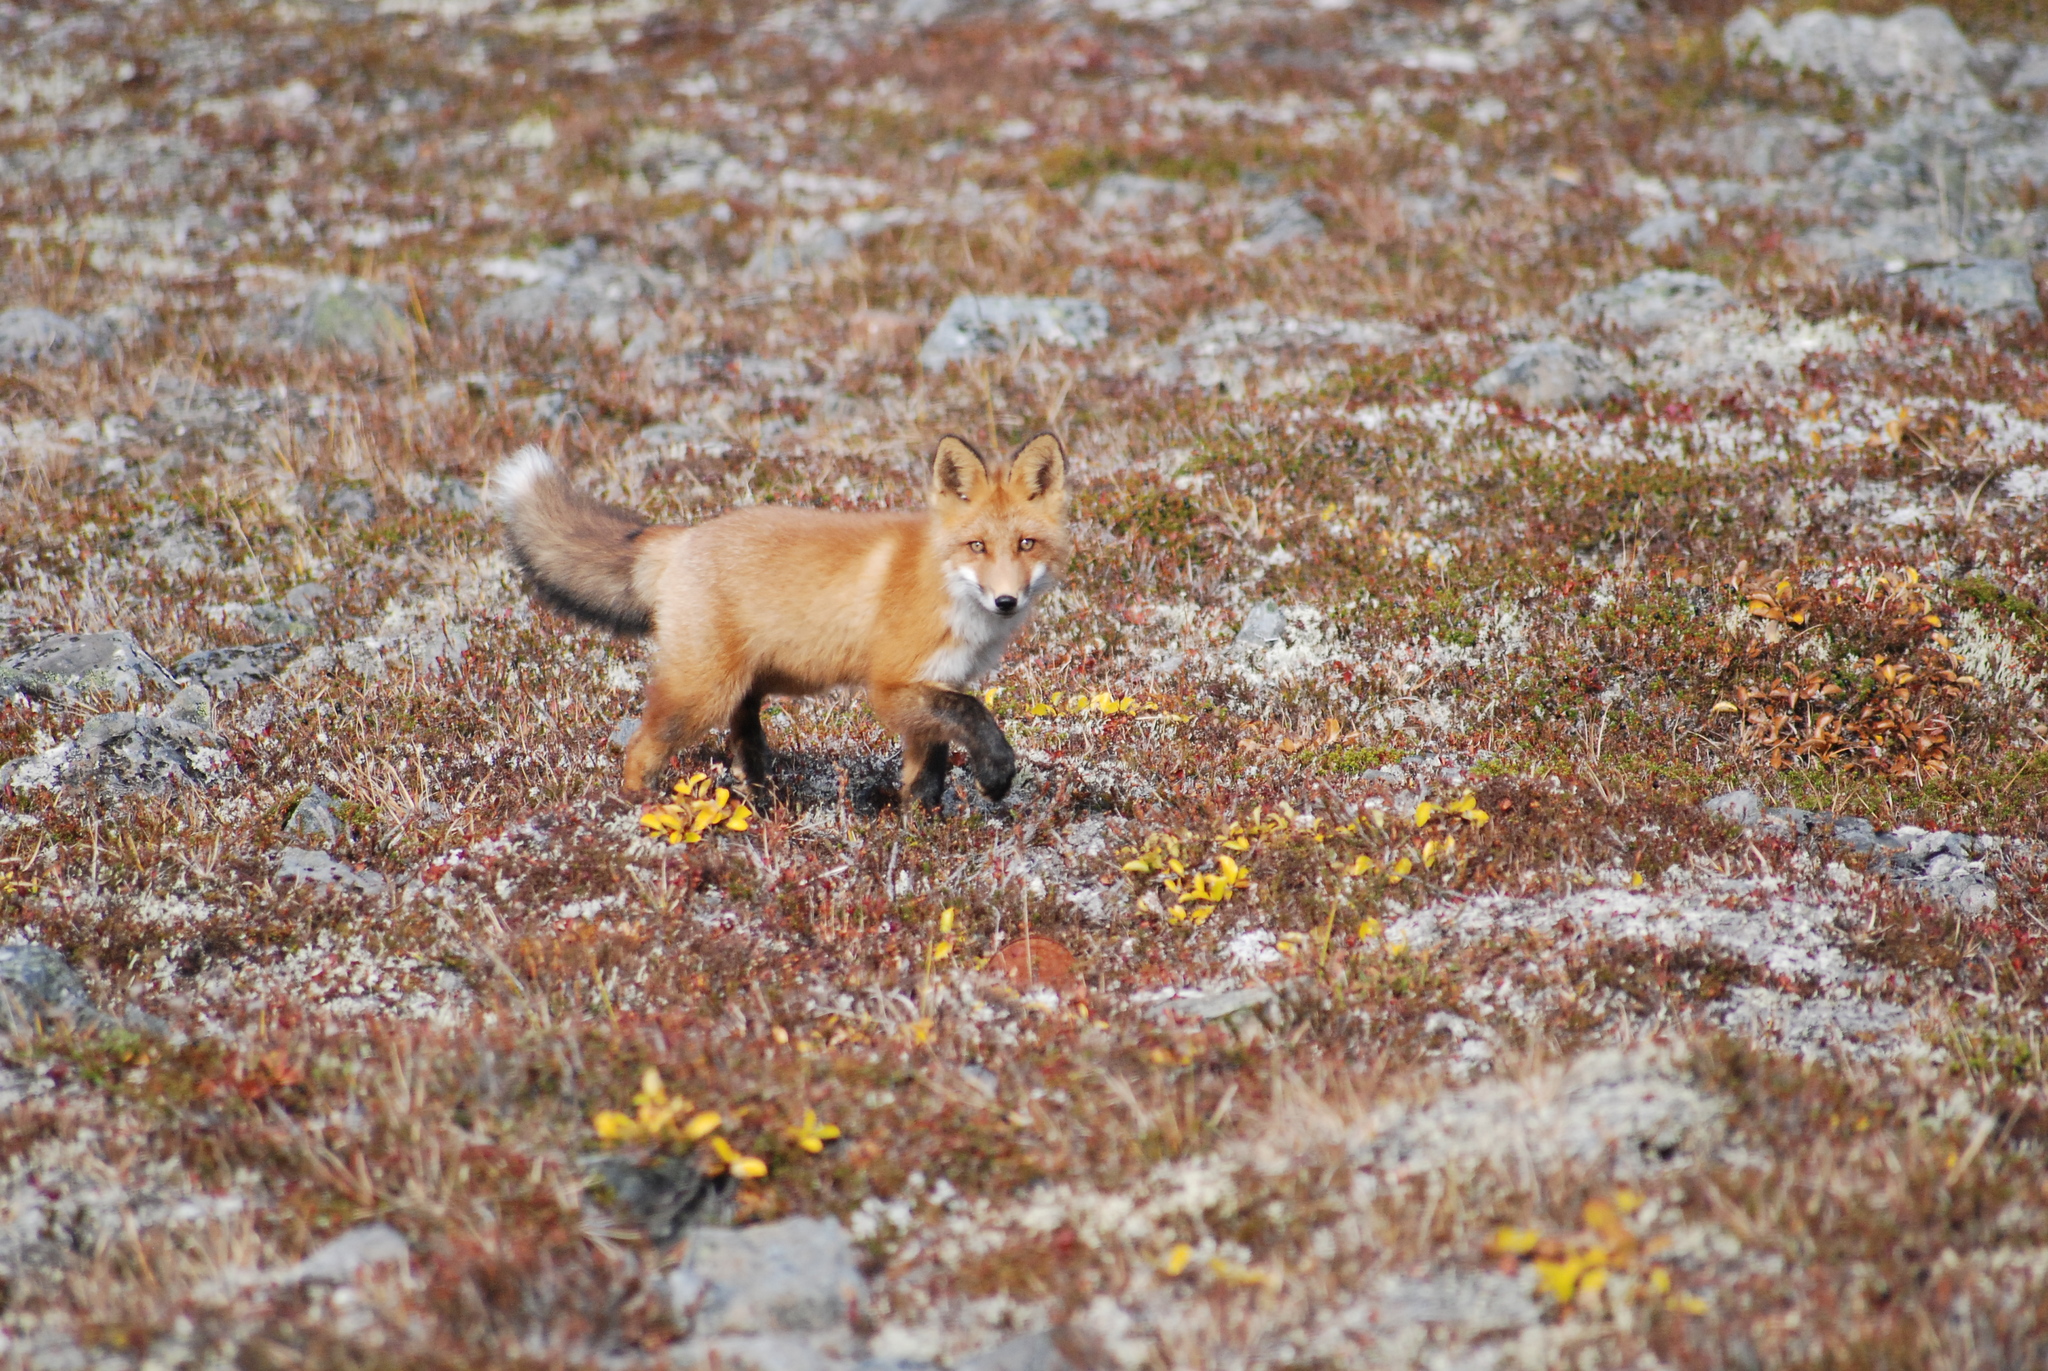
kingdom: Animalia
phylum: Chordata
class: Mammalia
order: Carnivora
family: Canidae
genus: Vulpes
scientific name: Vulpes vulpes
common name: Red fox
